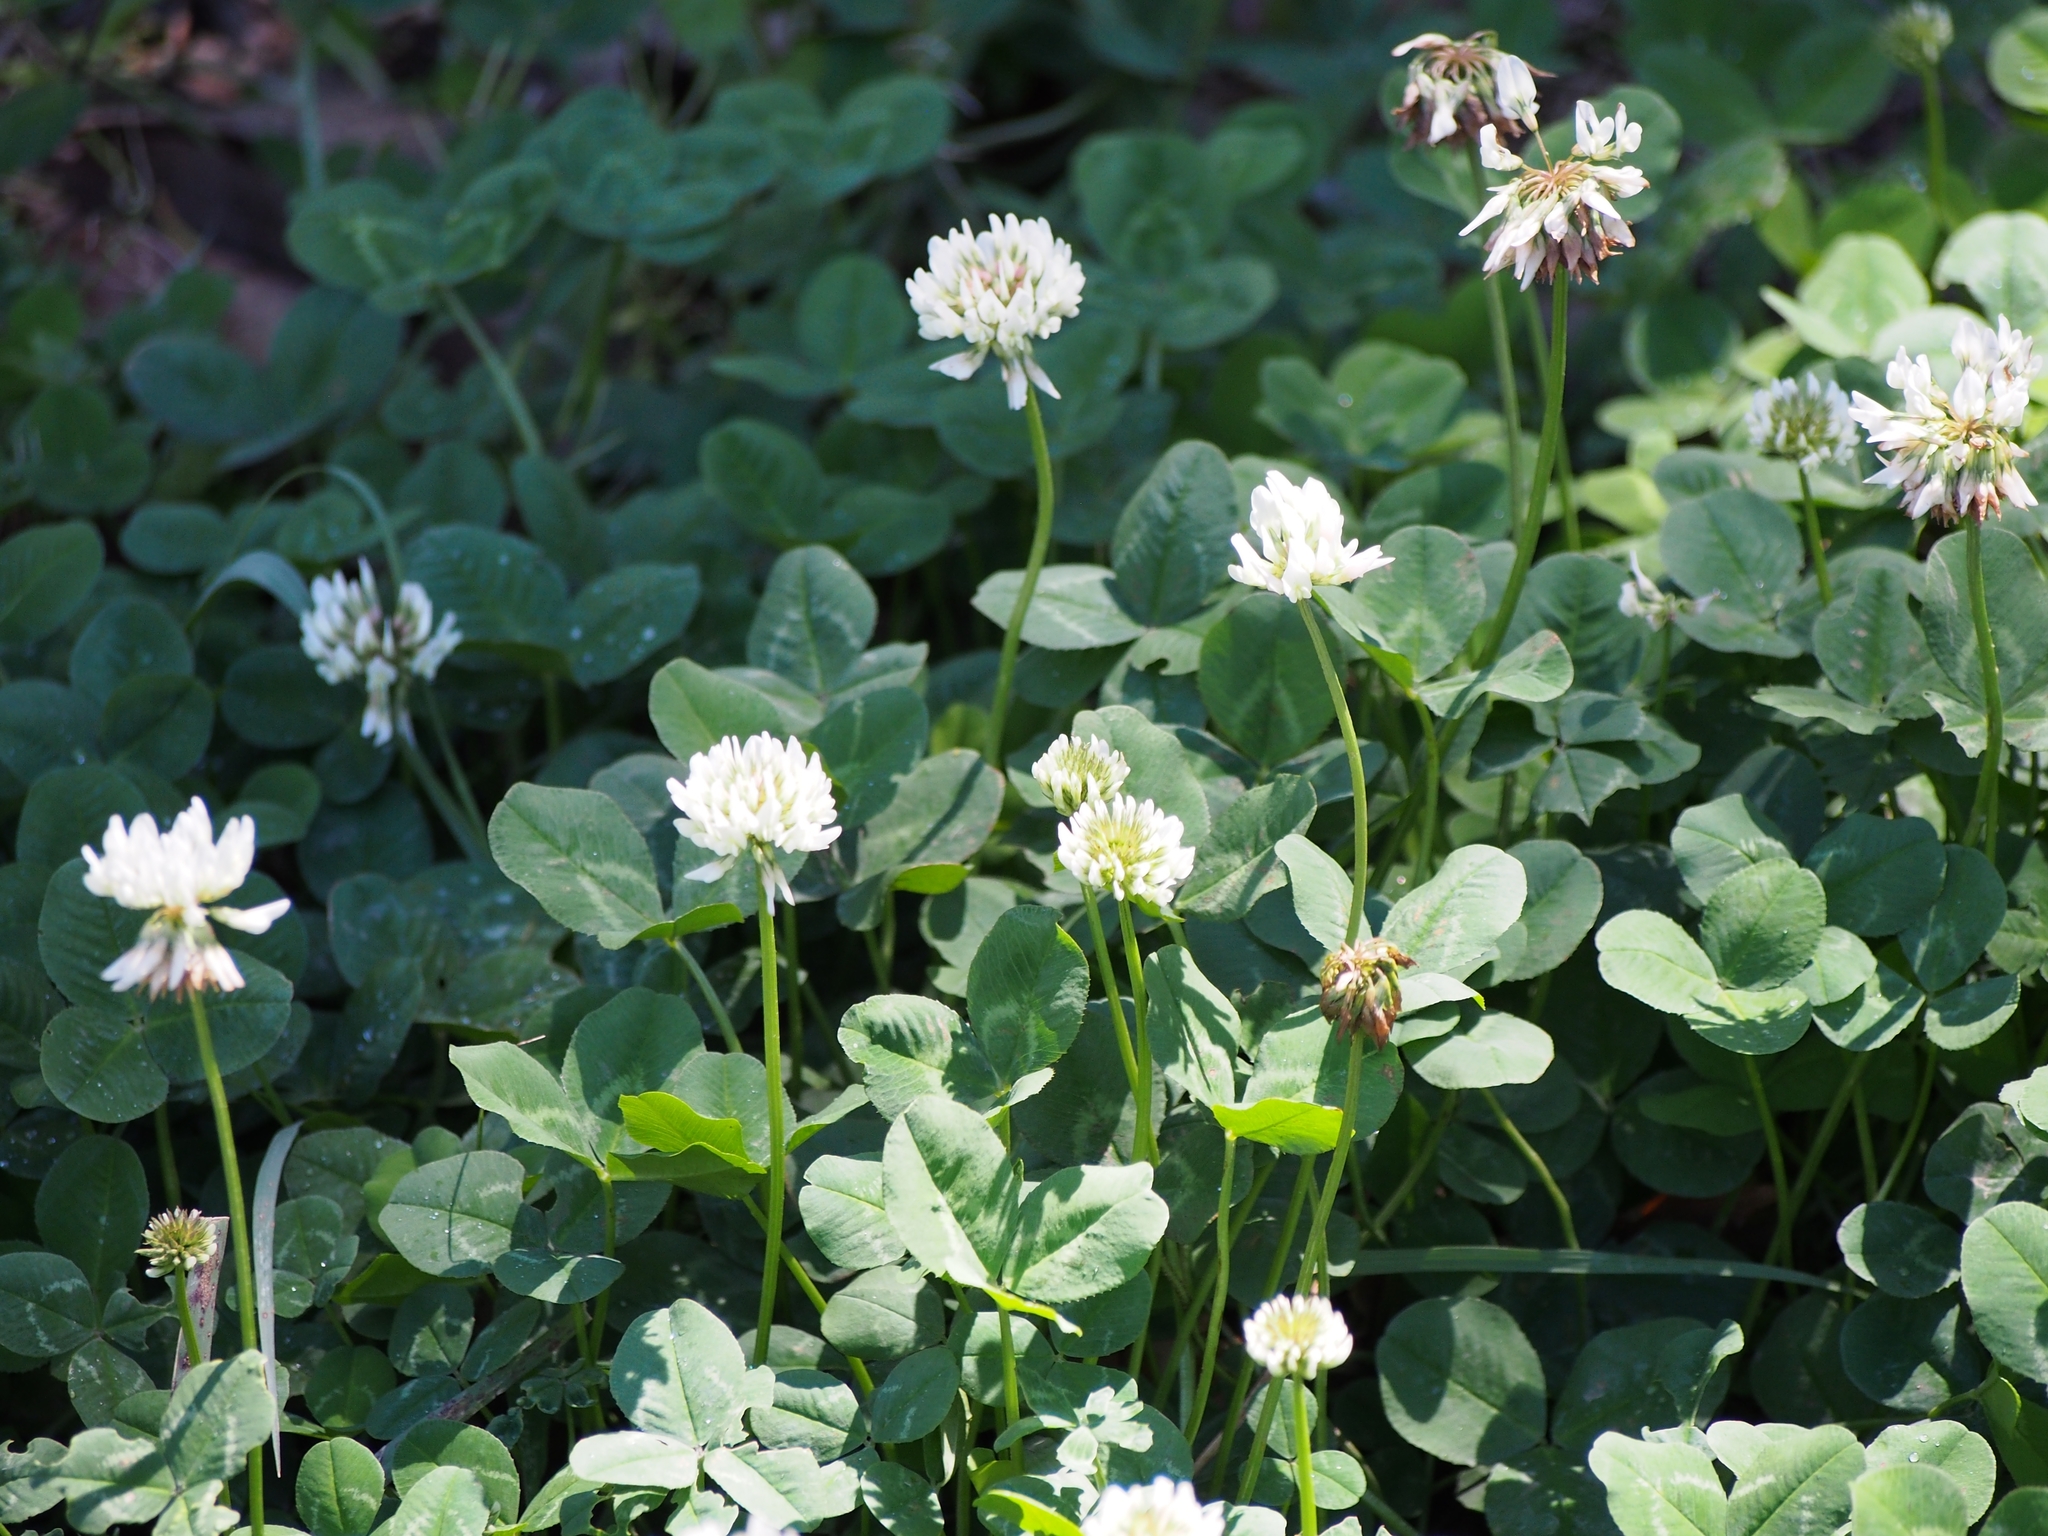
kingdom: Plantae
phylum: Tracheophyta
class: Magnoliopsida
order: Fabales
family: Fabaceae
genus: Trifolium
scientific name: Trifolium repens
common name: White clover
